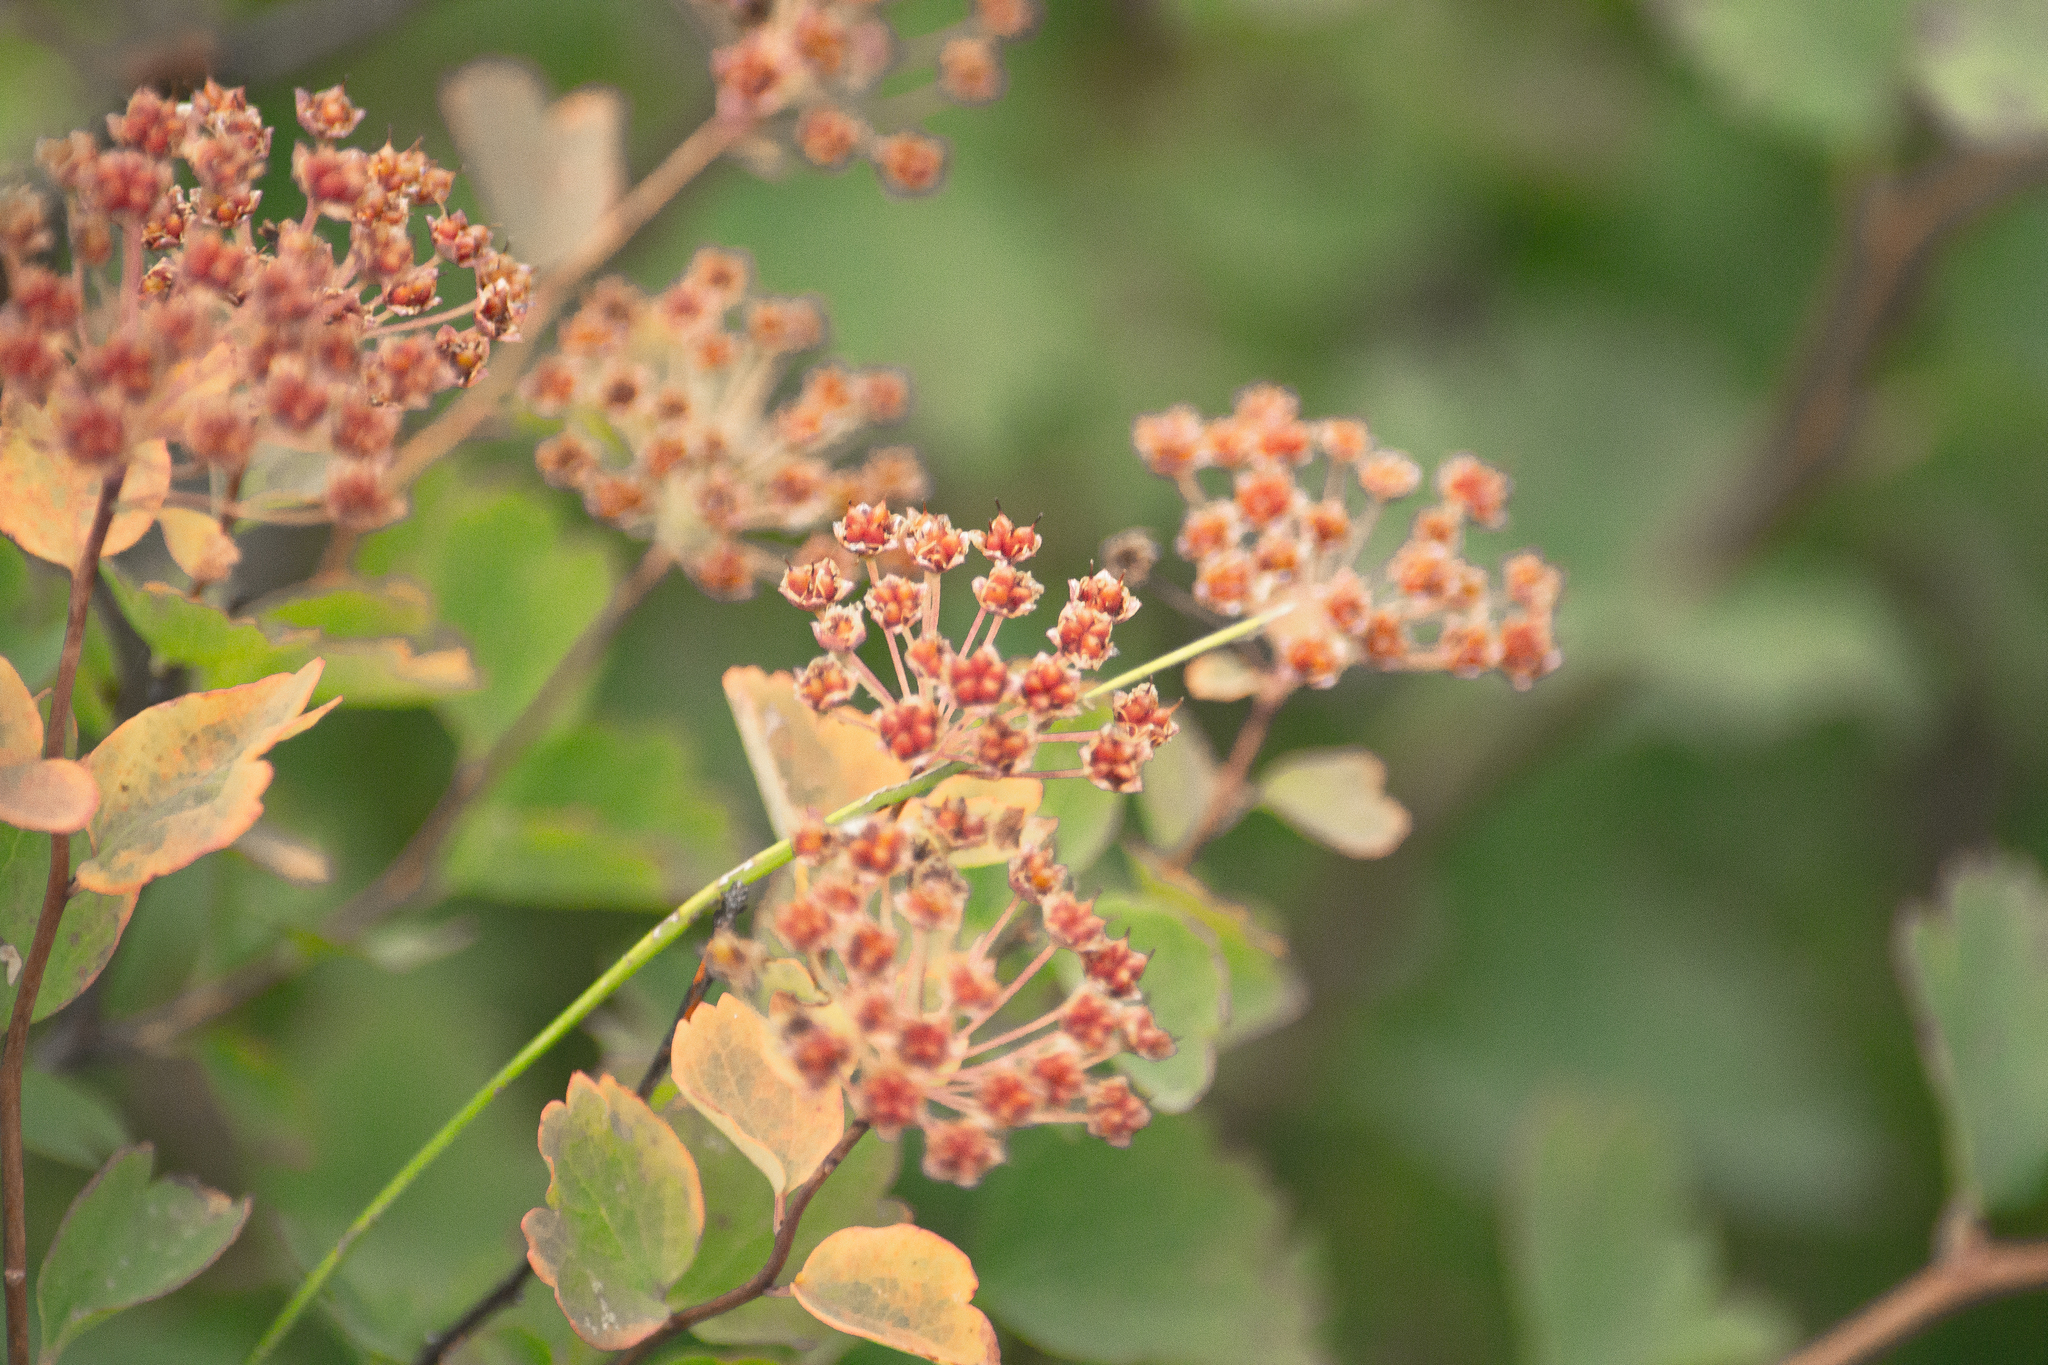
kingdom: Plantae
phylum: Tracheophyta
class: Magnoliopsida
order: Rosales
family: Rosaceae
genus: Spiraea
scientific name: Spiraea trilobata
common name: Asian meadowsweet
